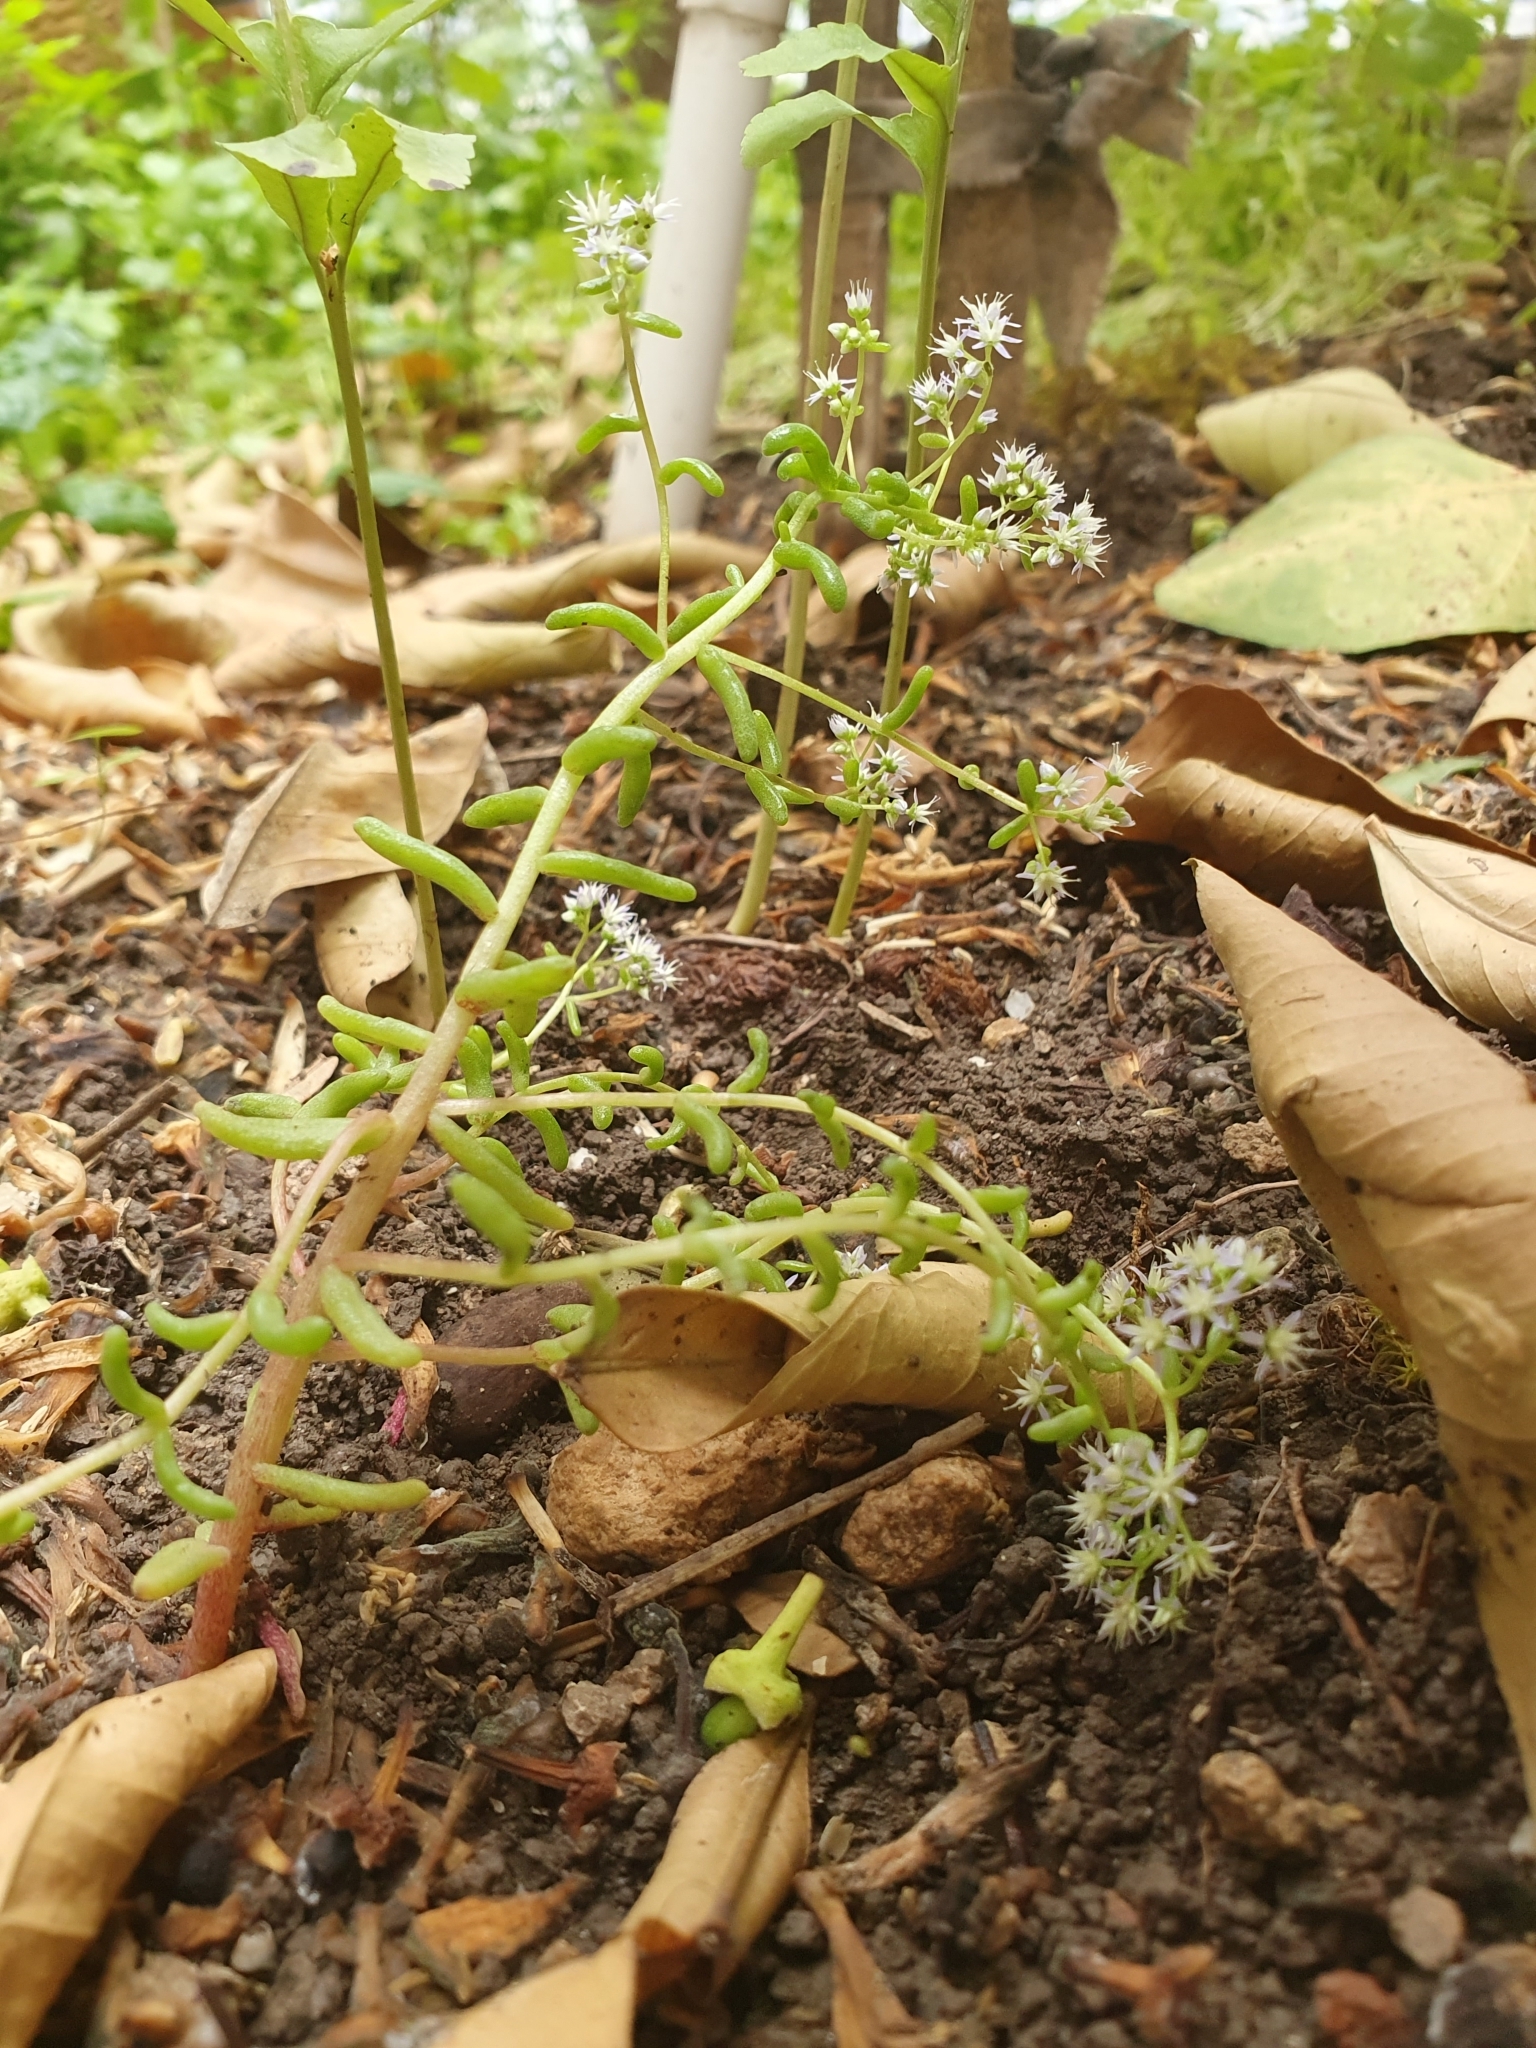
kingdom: Plantae
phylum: Tracheophyta
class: Magnoliopsida
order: Saxifragales
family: Crassulaceae
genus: Sedum
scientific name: Sedum caeruleum
